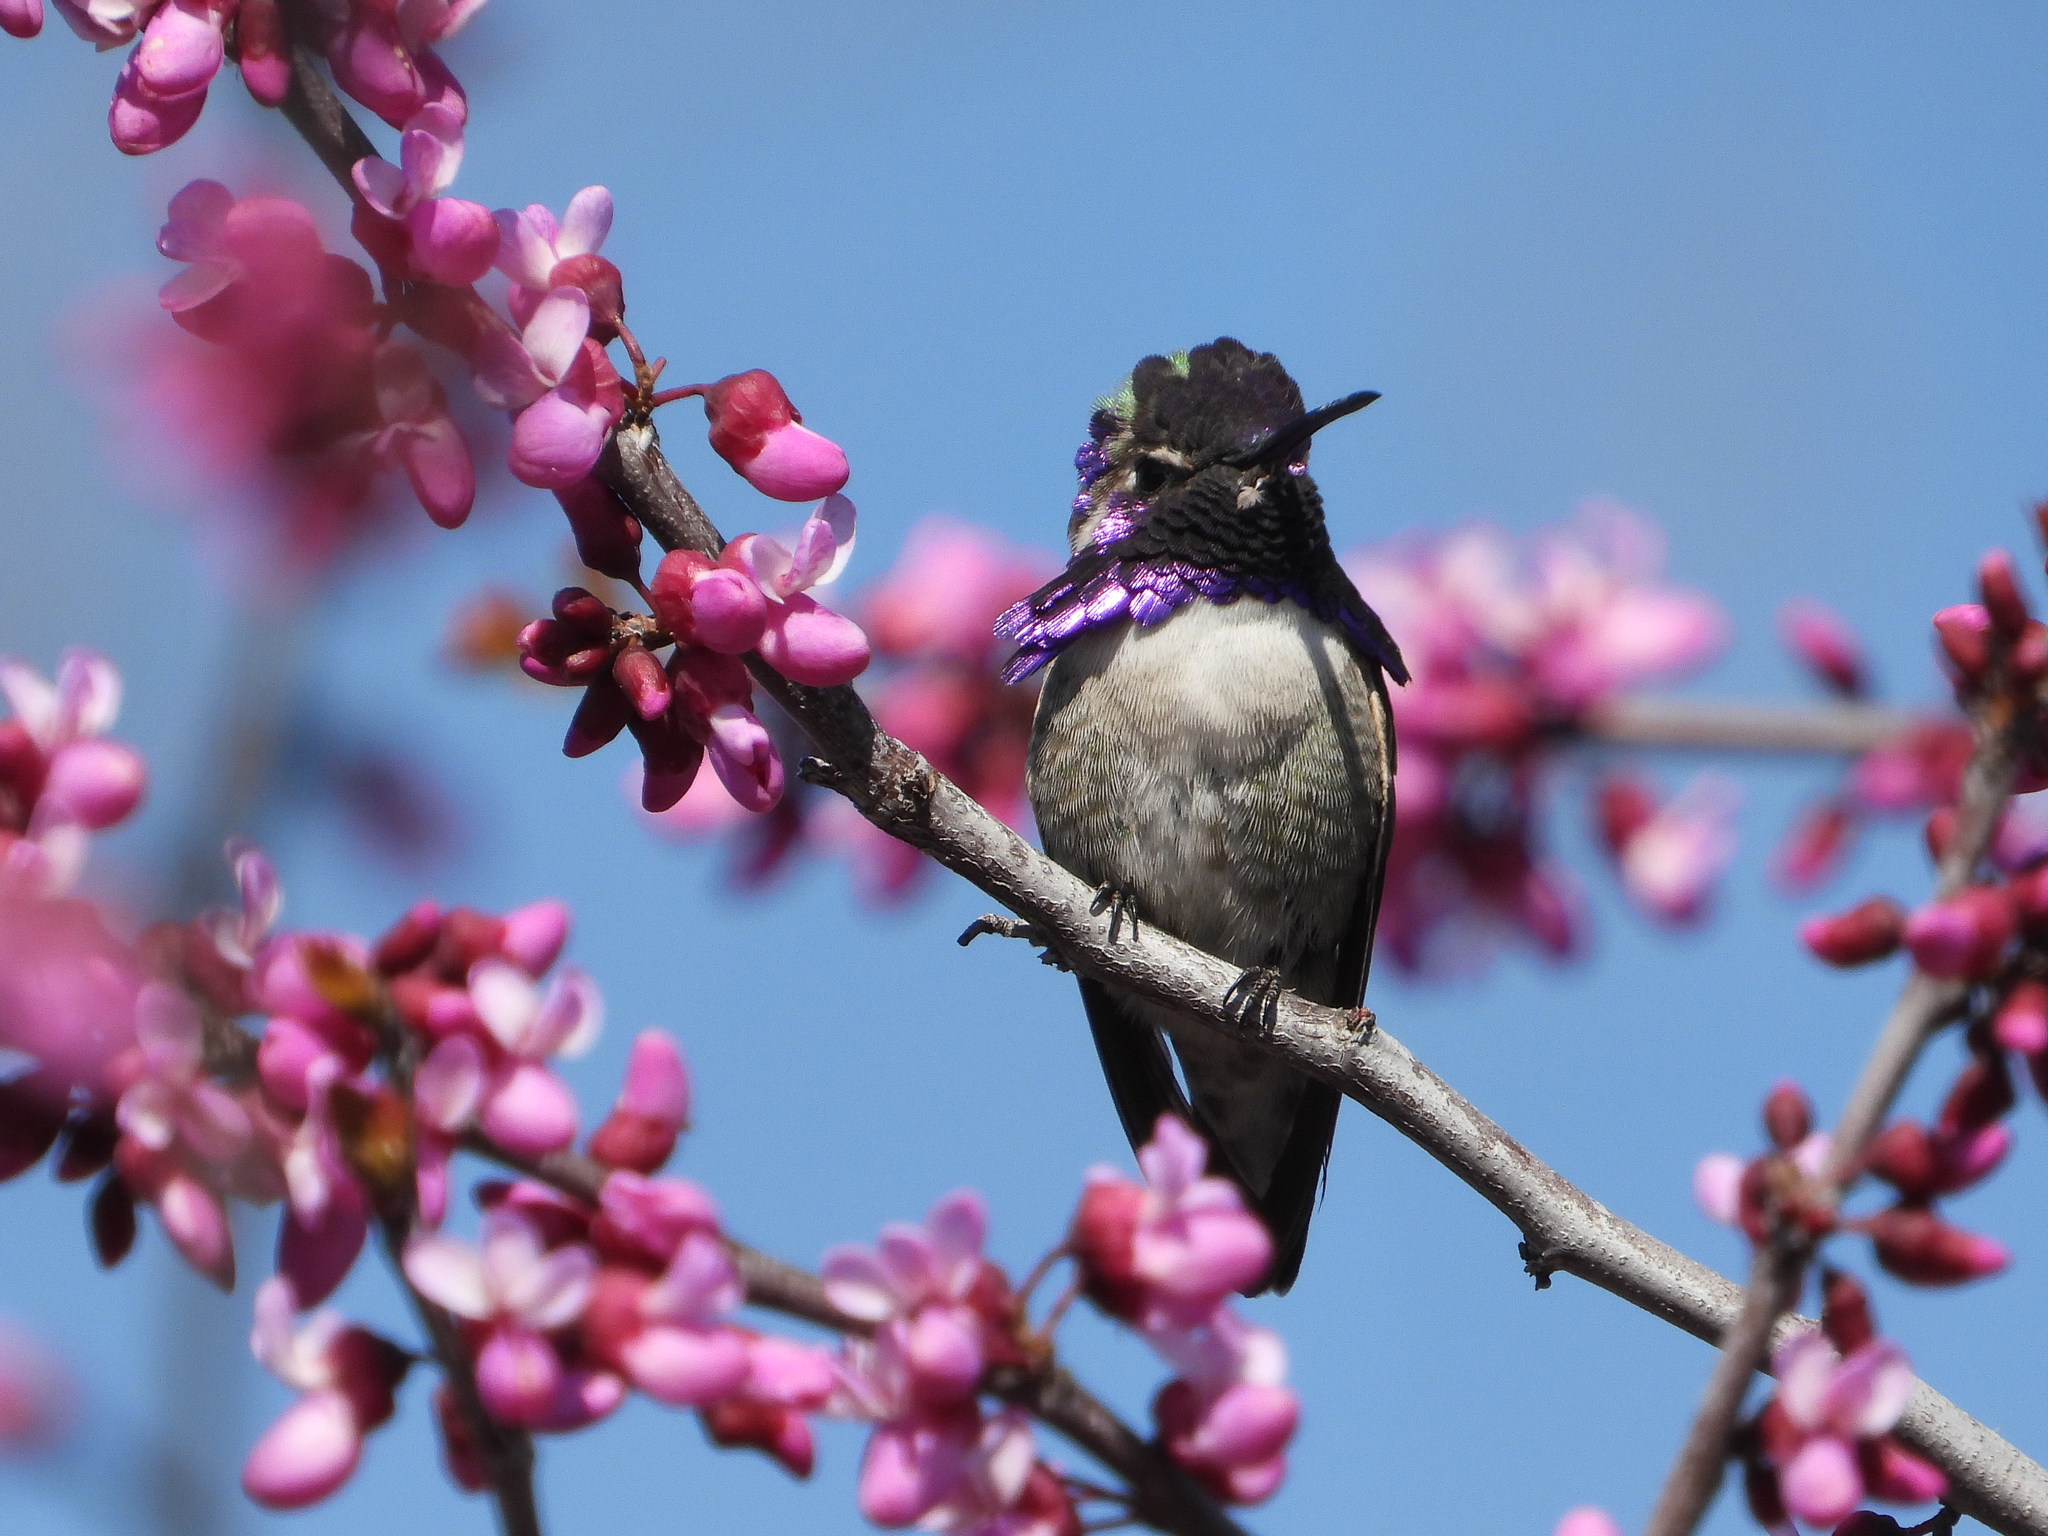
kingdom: Animalia
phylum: Chordata
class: Aves
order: Apodiformes
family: Trochilidae
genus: Calypte
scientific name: Calypte costae
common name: Costa's hummingbird
